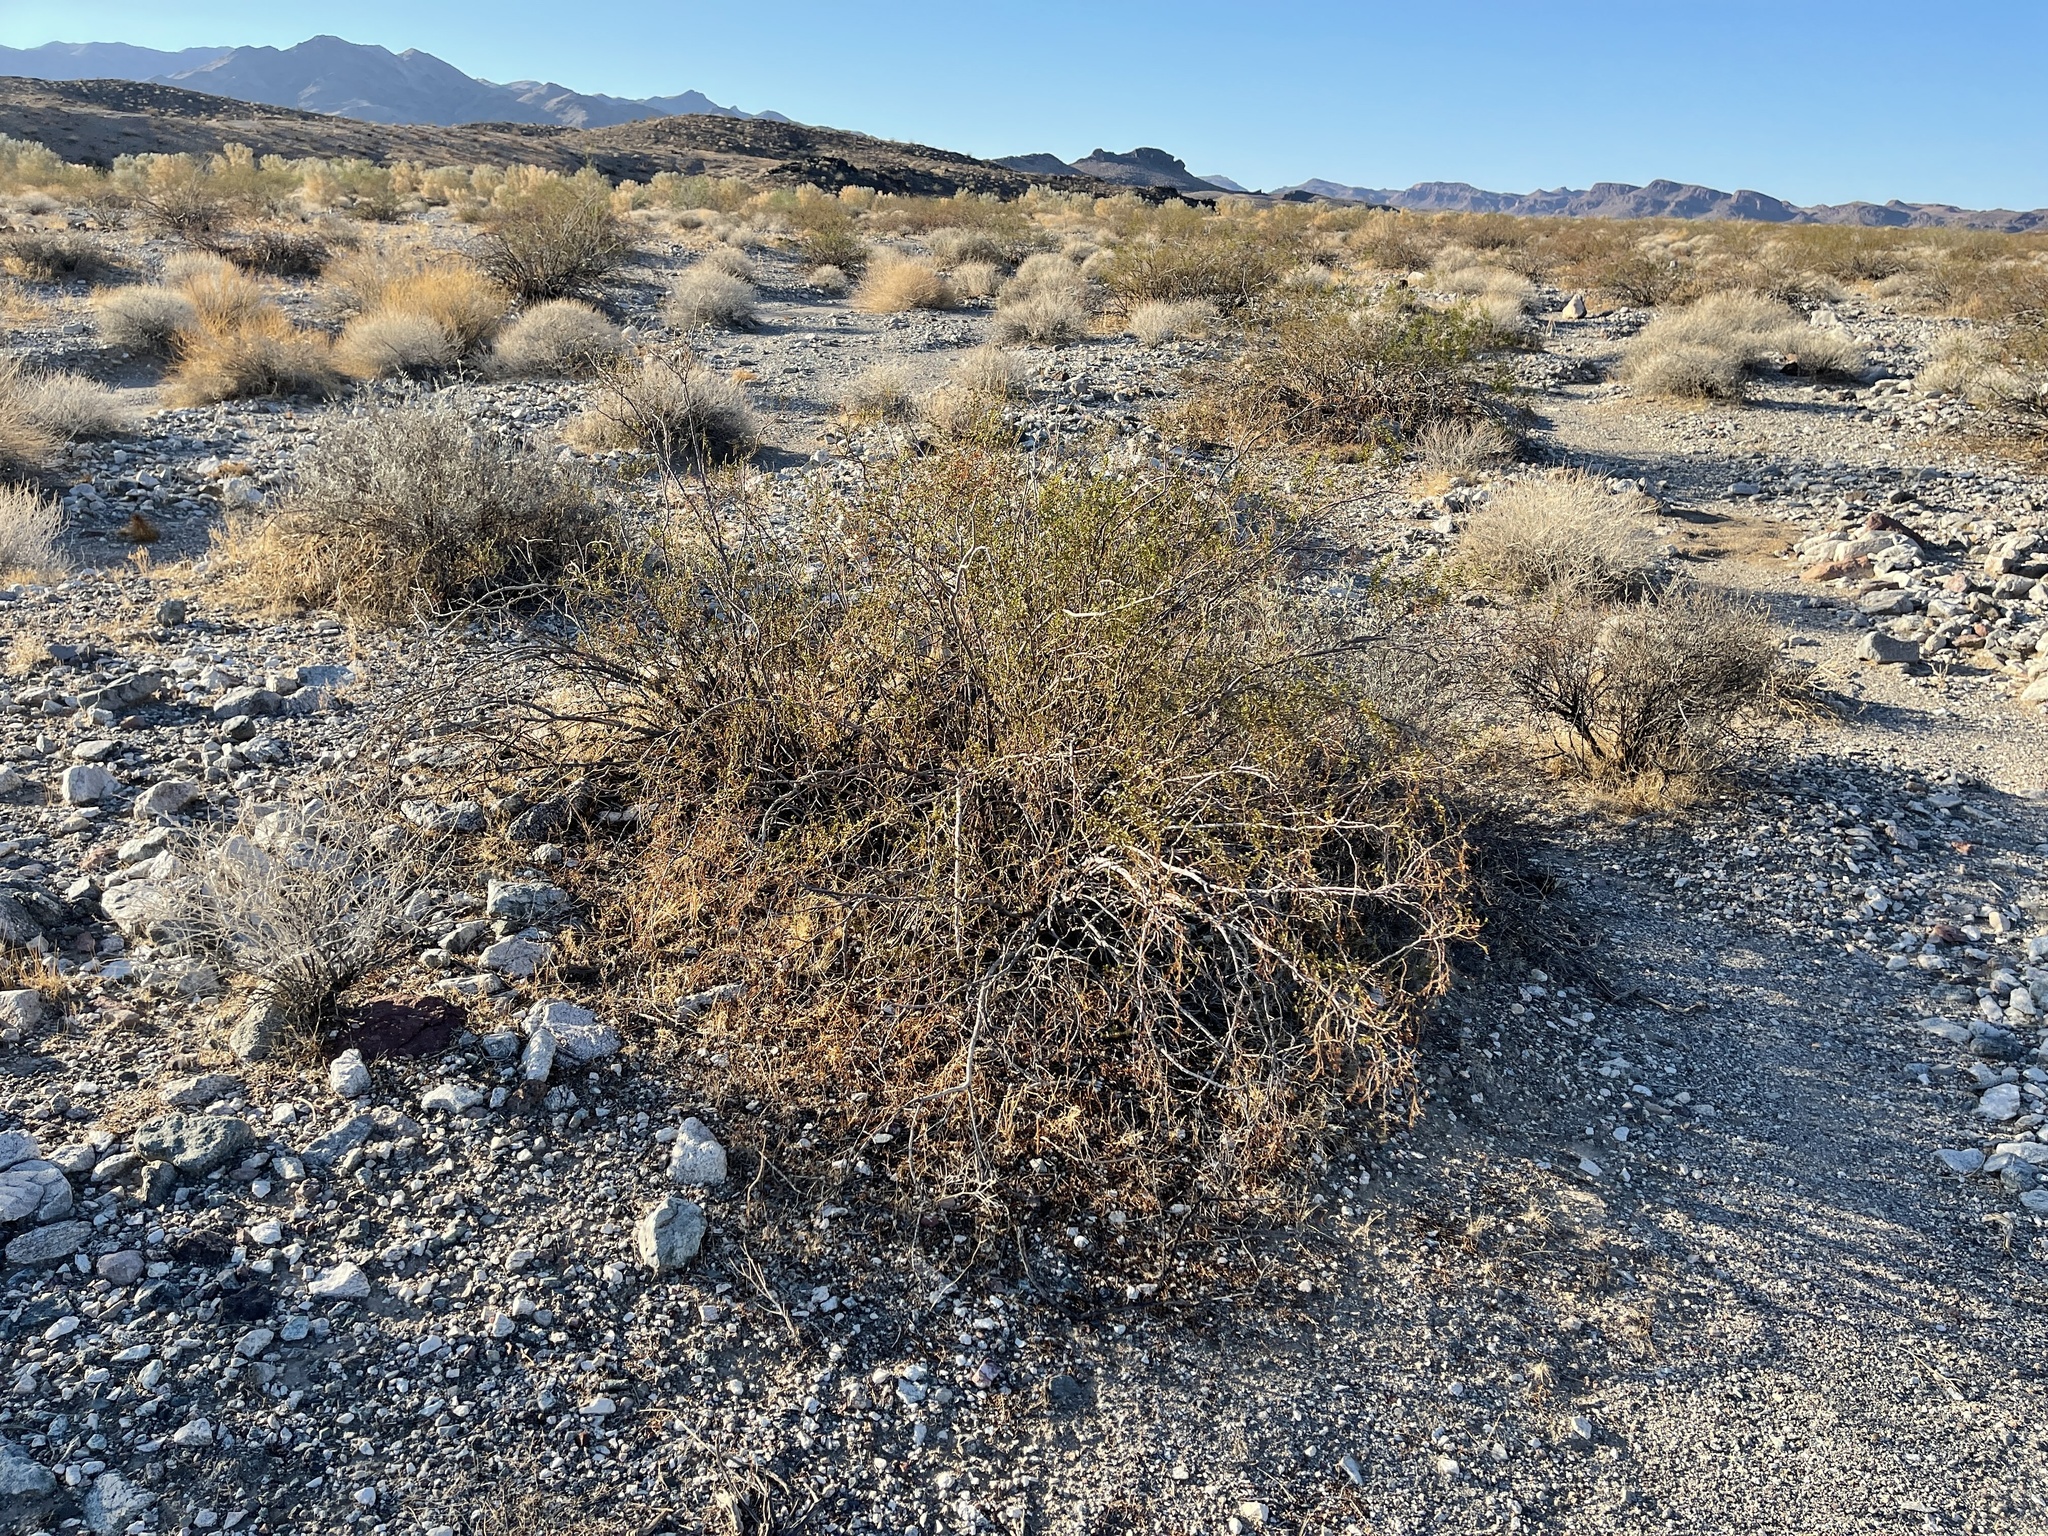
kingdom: Plantae
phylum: Tracheophyta
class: Magnoliopsida
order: Zygophyllales
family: Zygophyllaceae
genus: Larrea
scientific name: Larrea tridentata
